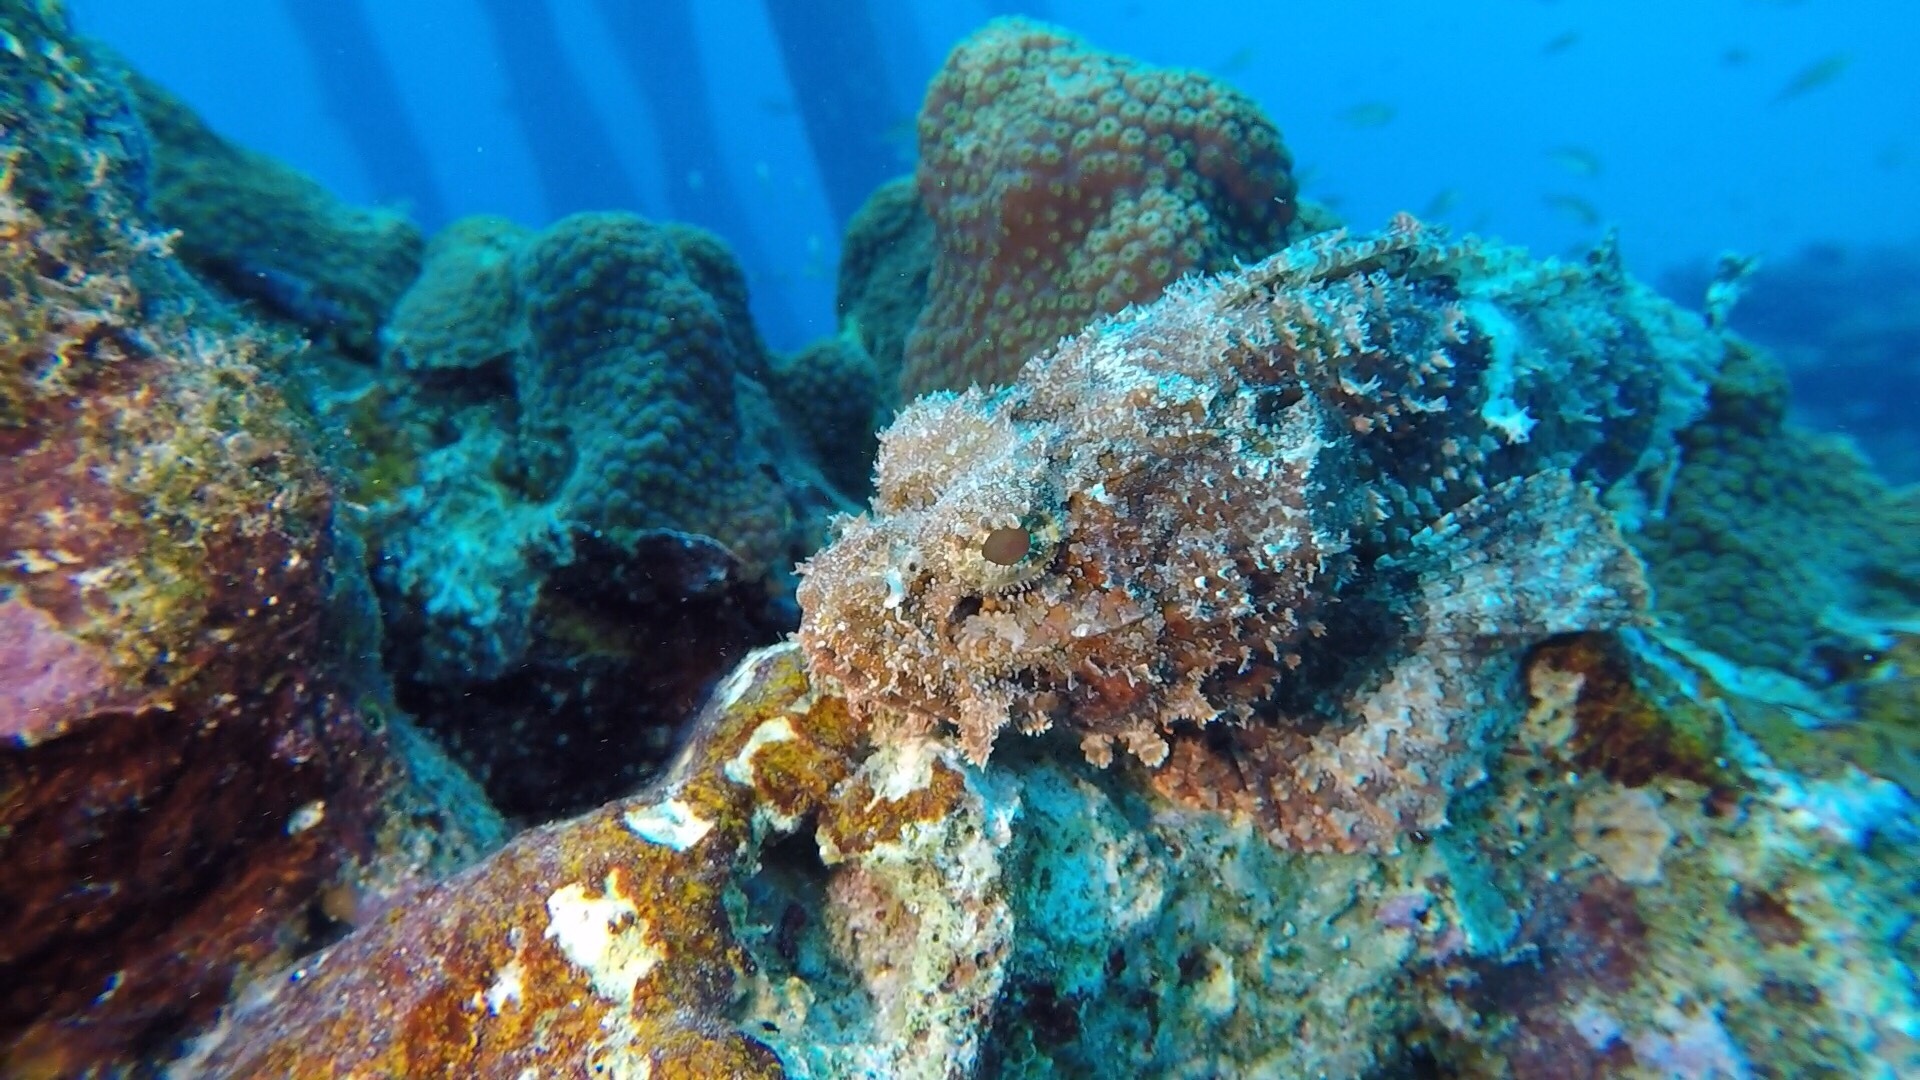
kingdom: Animalia
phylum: Chordata
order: Scorpaeniformes
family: Scorpaenidae
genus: Scorpaena
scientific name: Scorpaena plumieri
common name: Spotted scorpionfish
